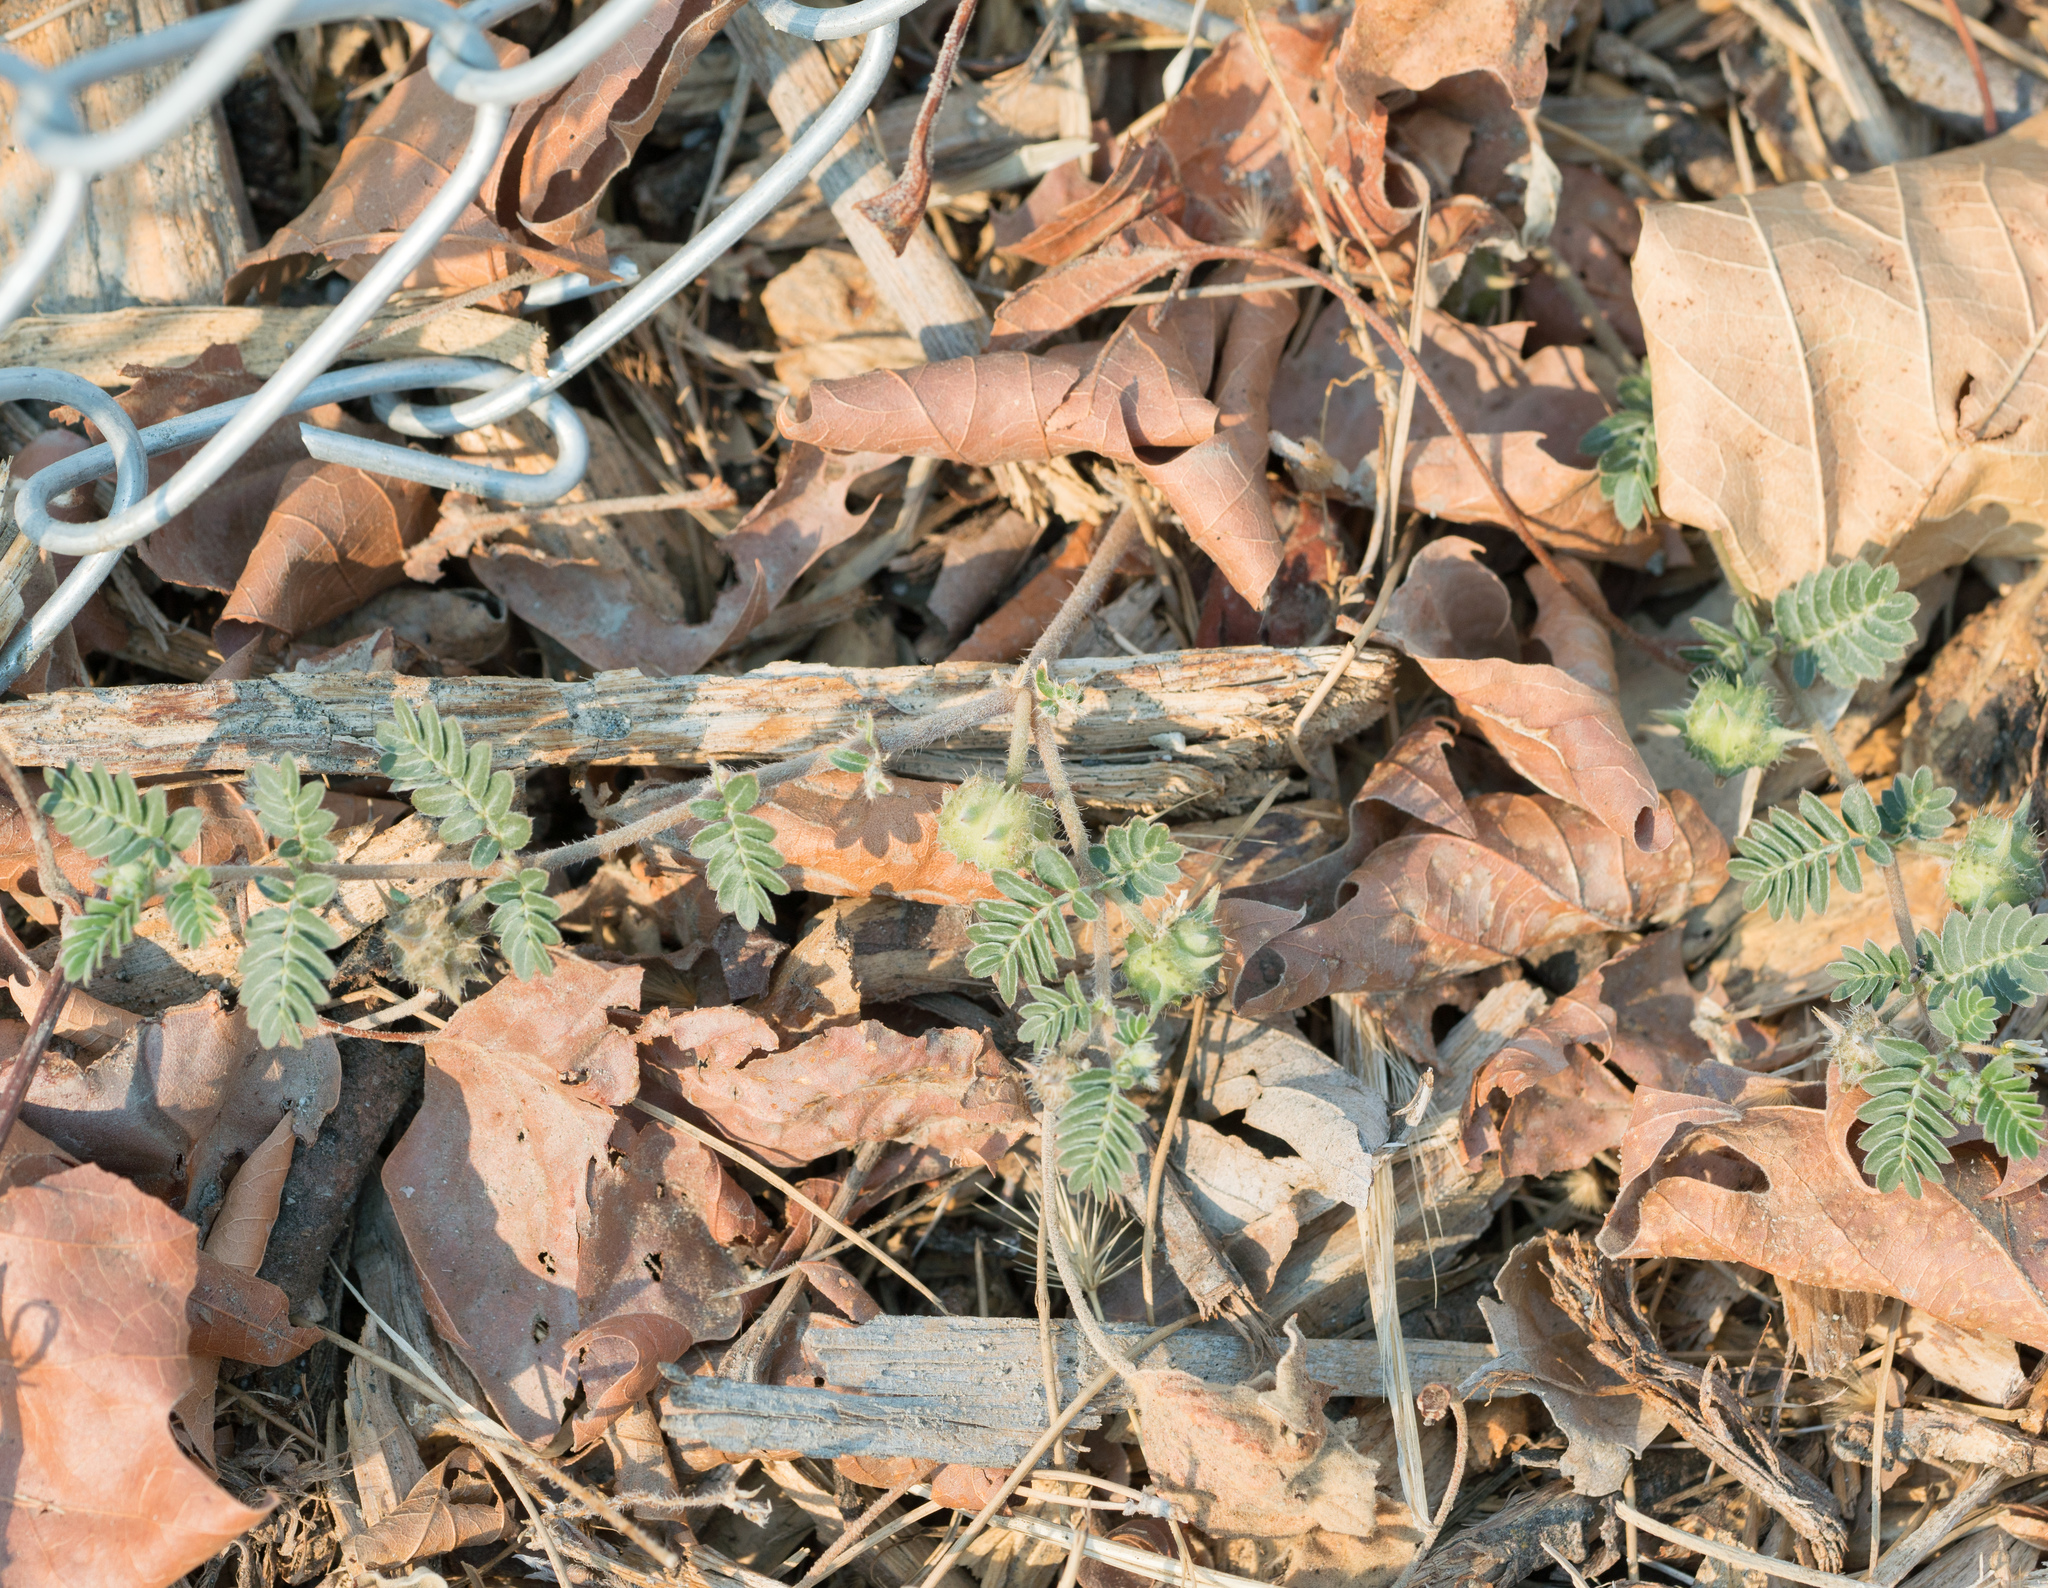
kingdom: Plantae
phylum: Tracheophyta
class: Magnoliopsida
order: Zygophyllales
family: Zygophyllaceae
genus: Tribulus
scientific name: Tribulus terrestris
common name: Puncturevine
